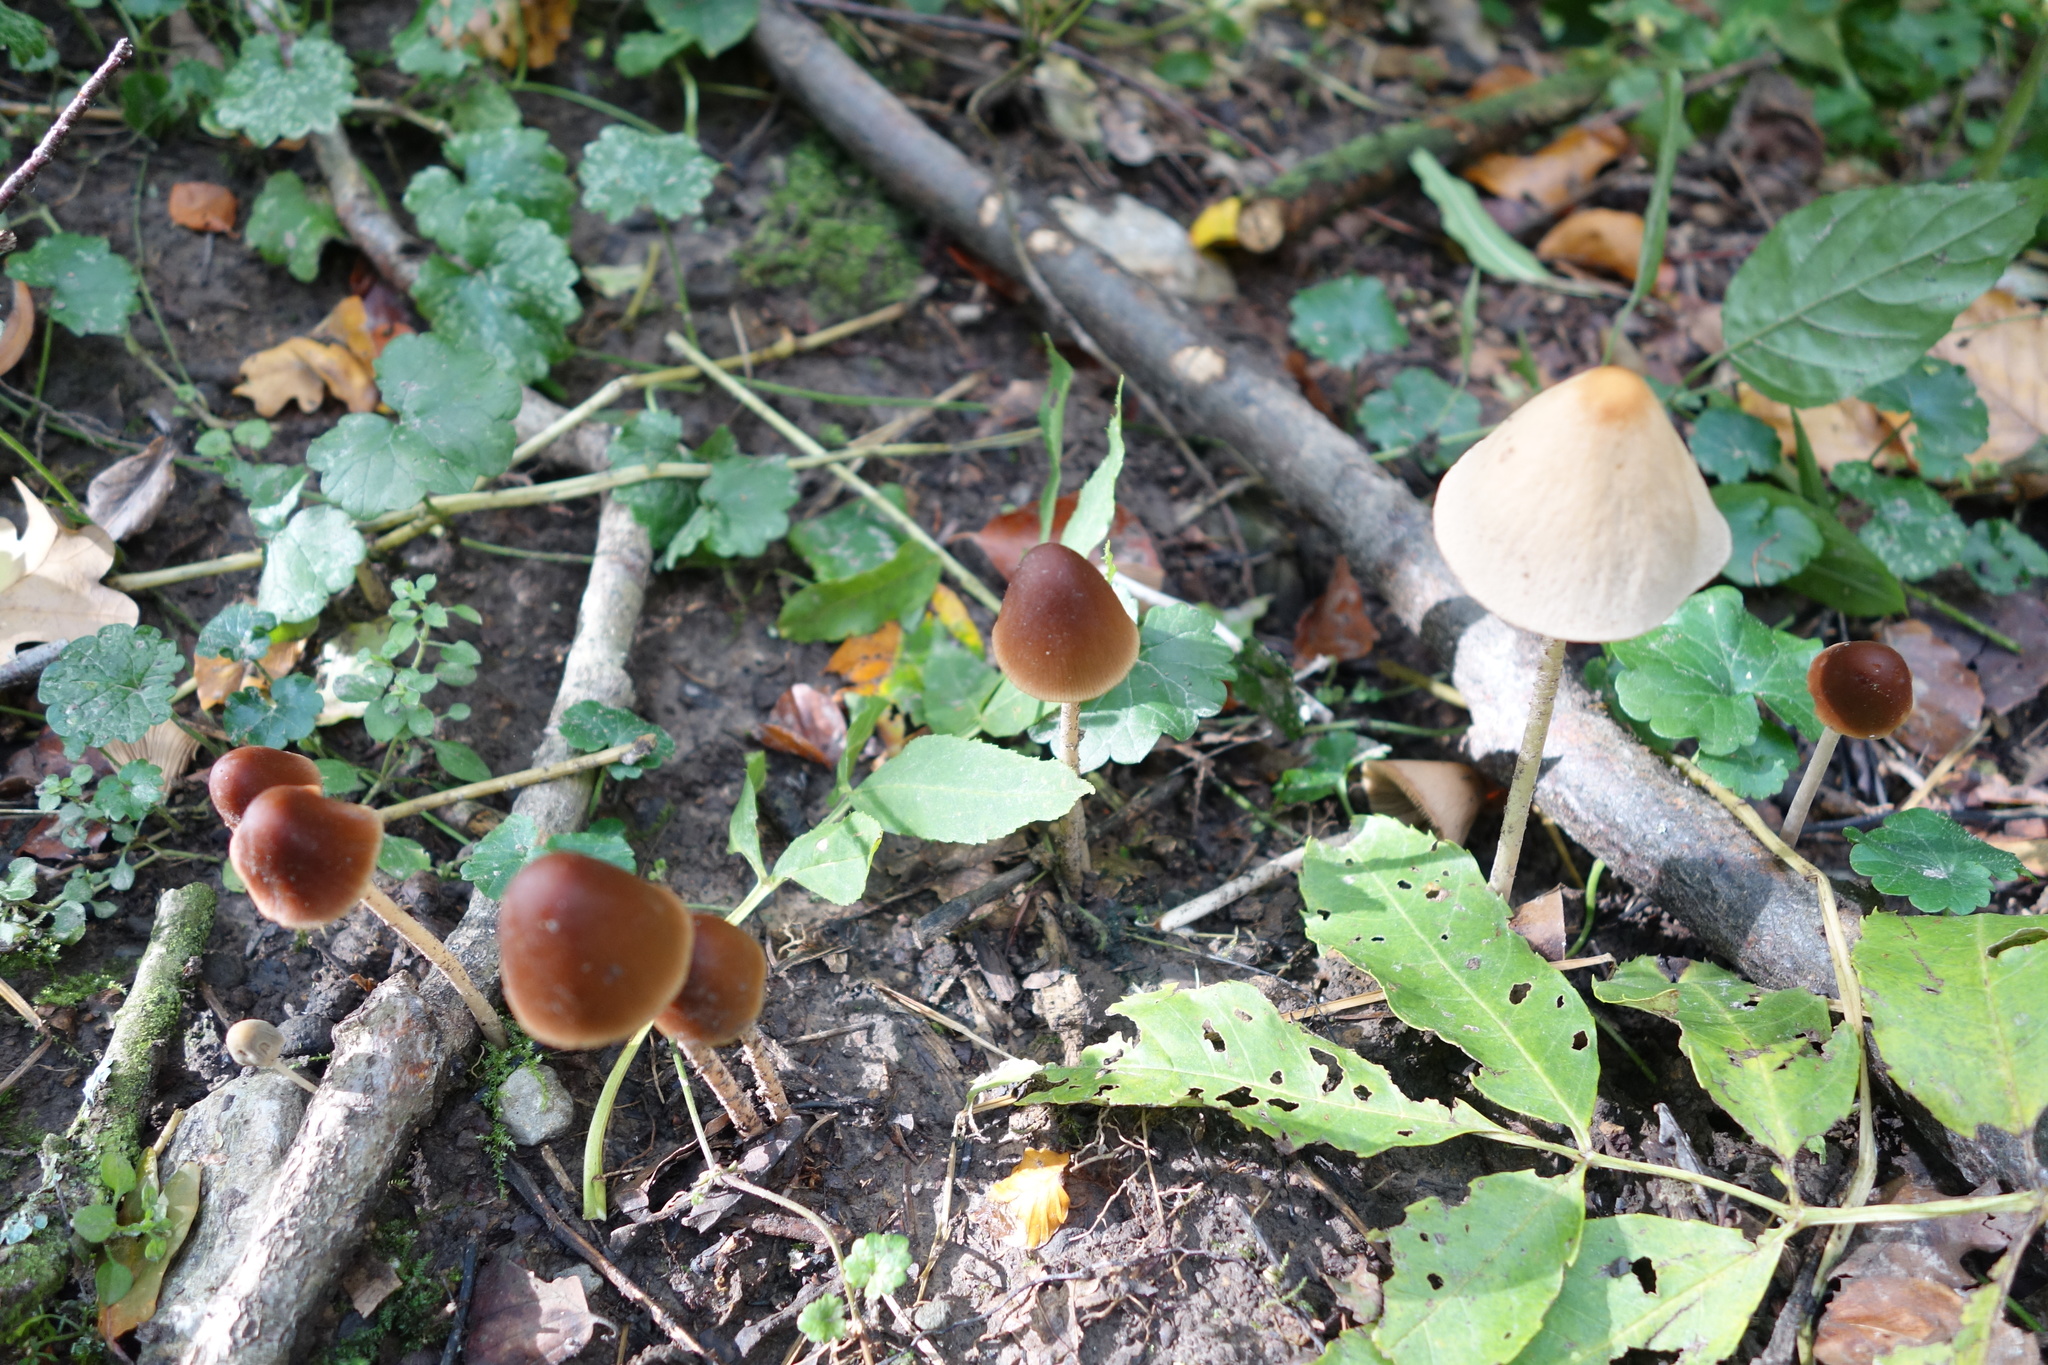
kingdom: Fungi
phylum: Basidiomycota
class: Agaricomycetes
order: Agaricales
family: Psathyrellaceae
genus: Parasola
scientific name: Parasola conopilea
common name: Conical brittlestem
